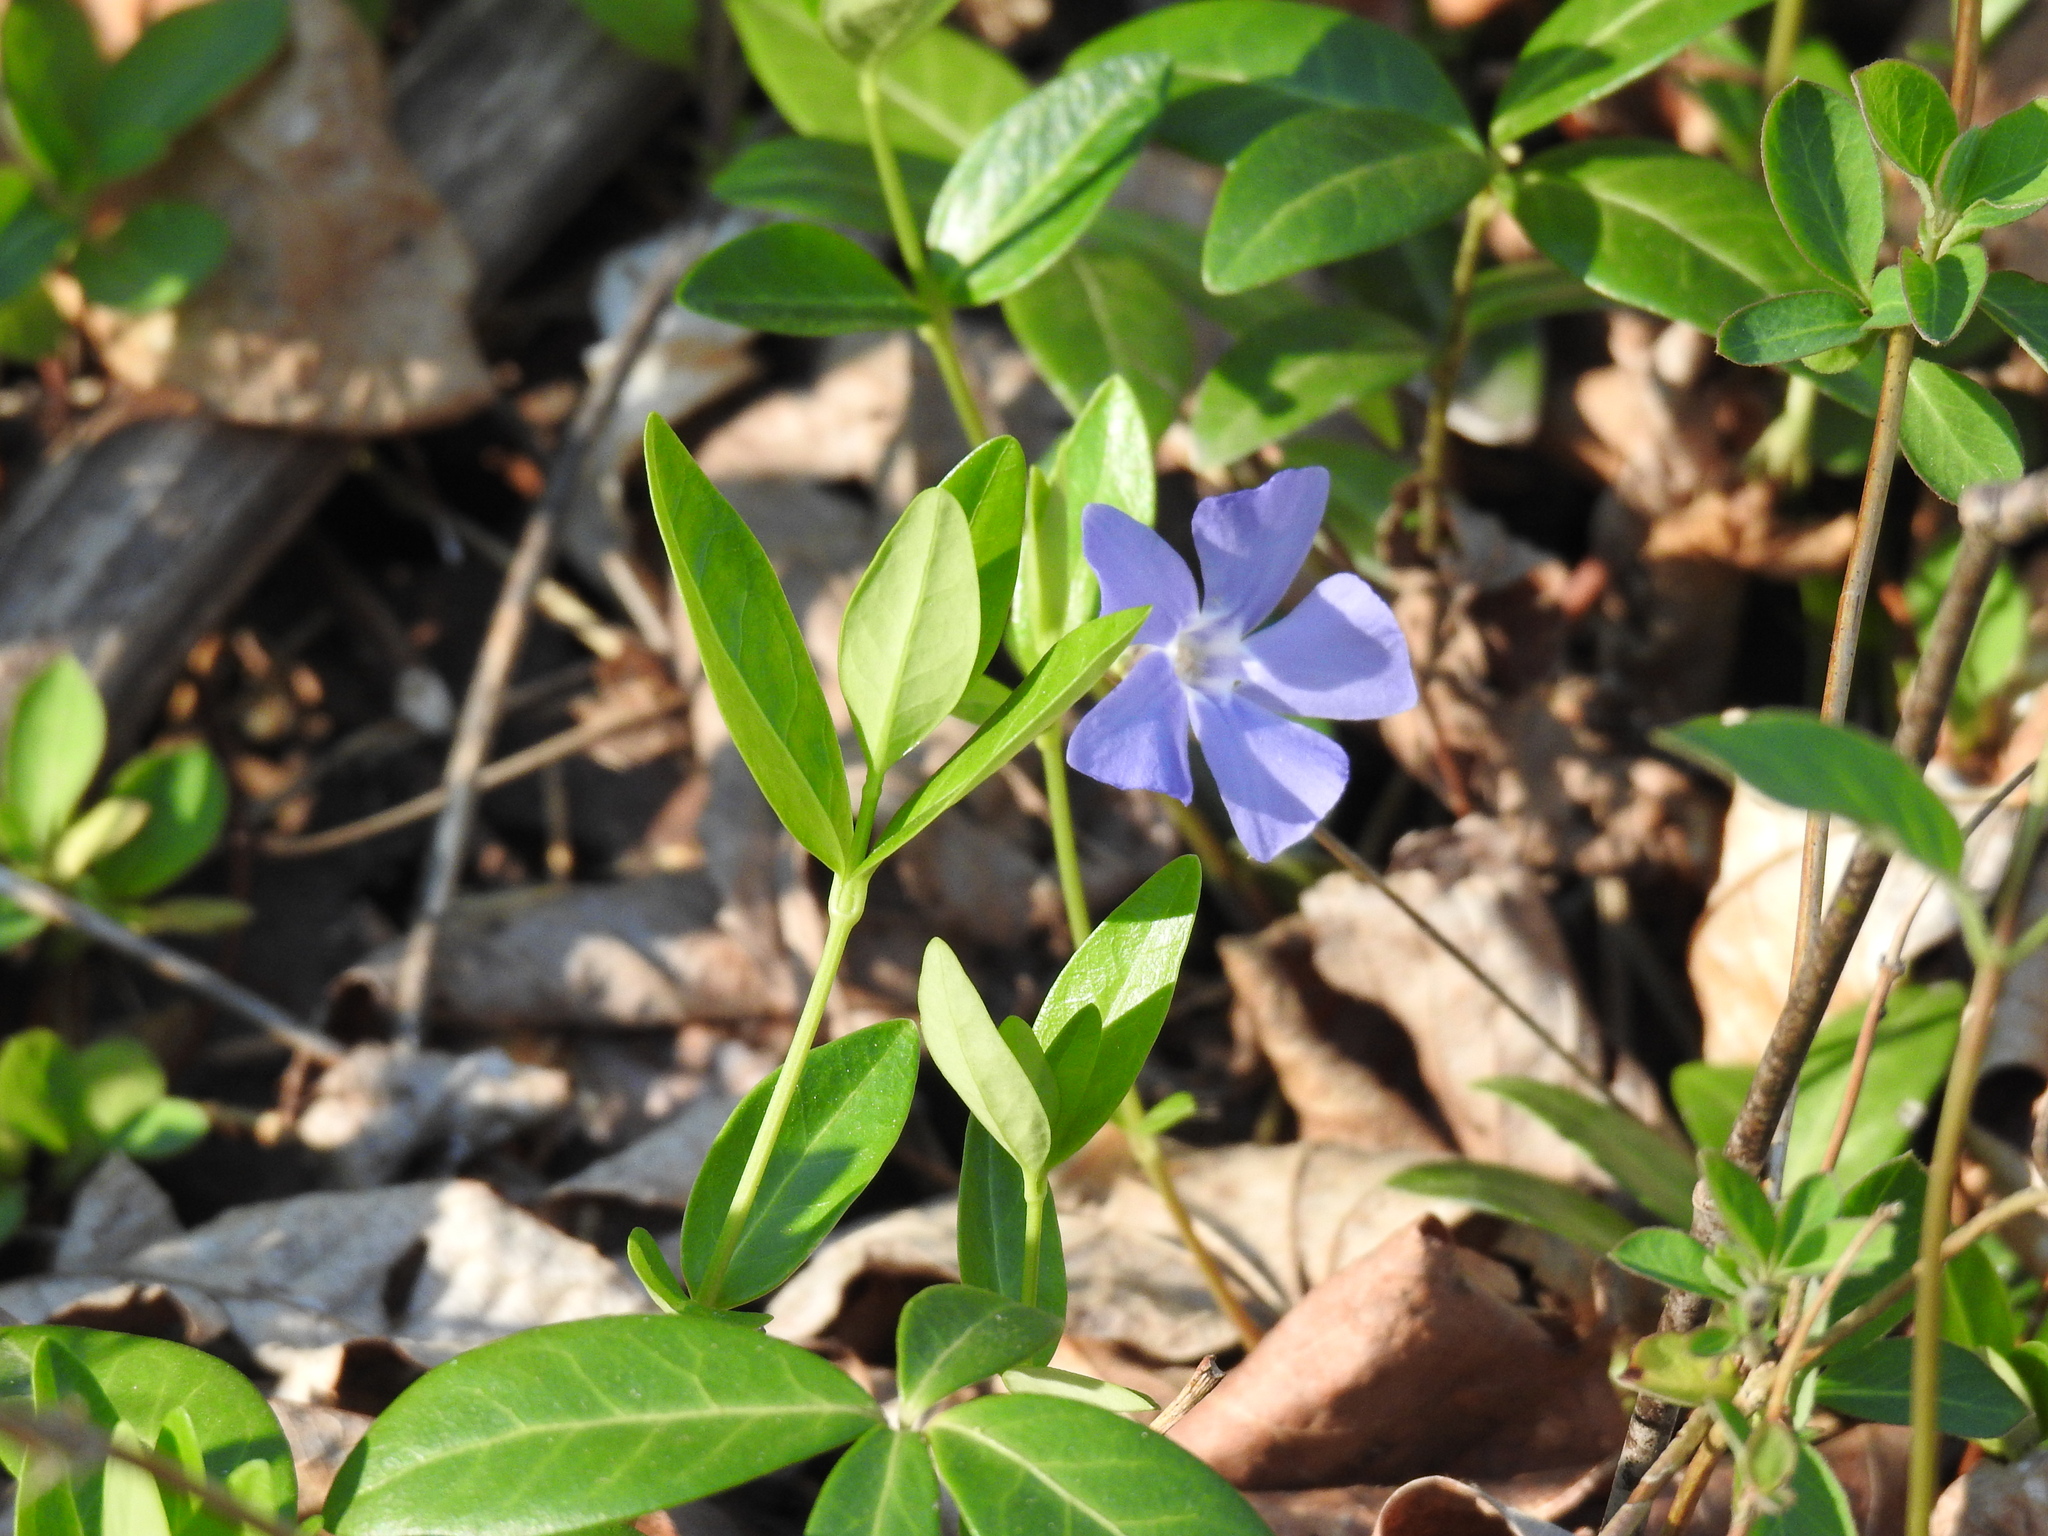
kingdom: Plantae
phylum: Tracheophyta
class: Magnoliopsida
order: Gentianales
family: Apocynaceae
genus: Vinca
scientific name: Vinca minor
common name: Lesser periwinkle
